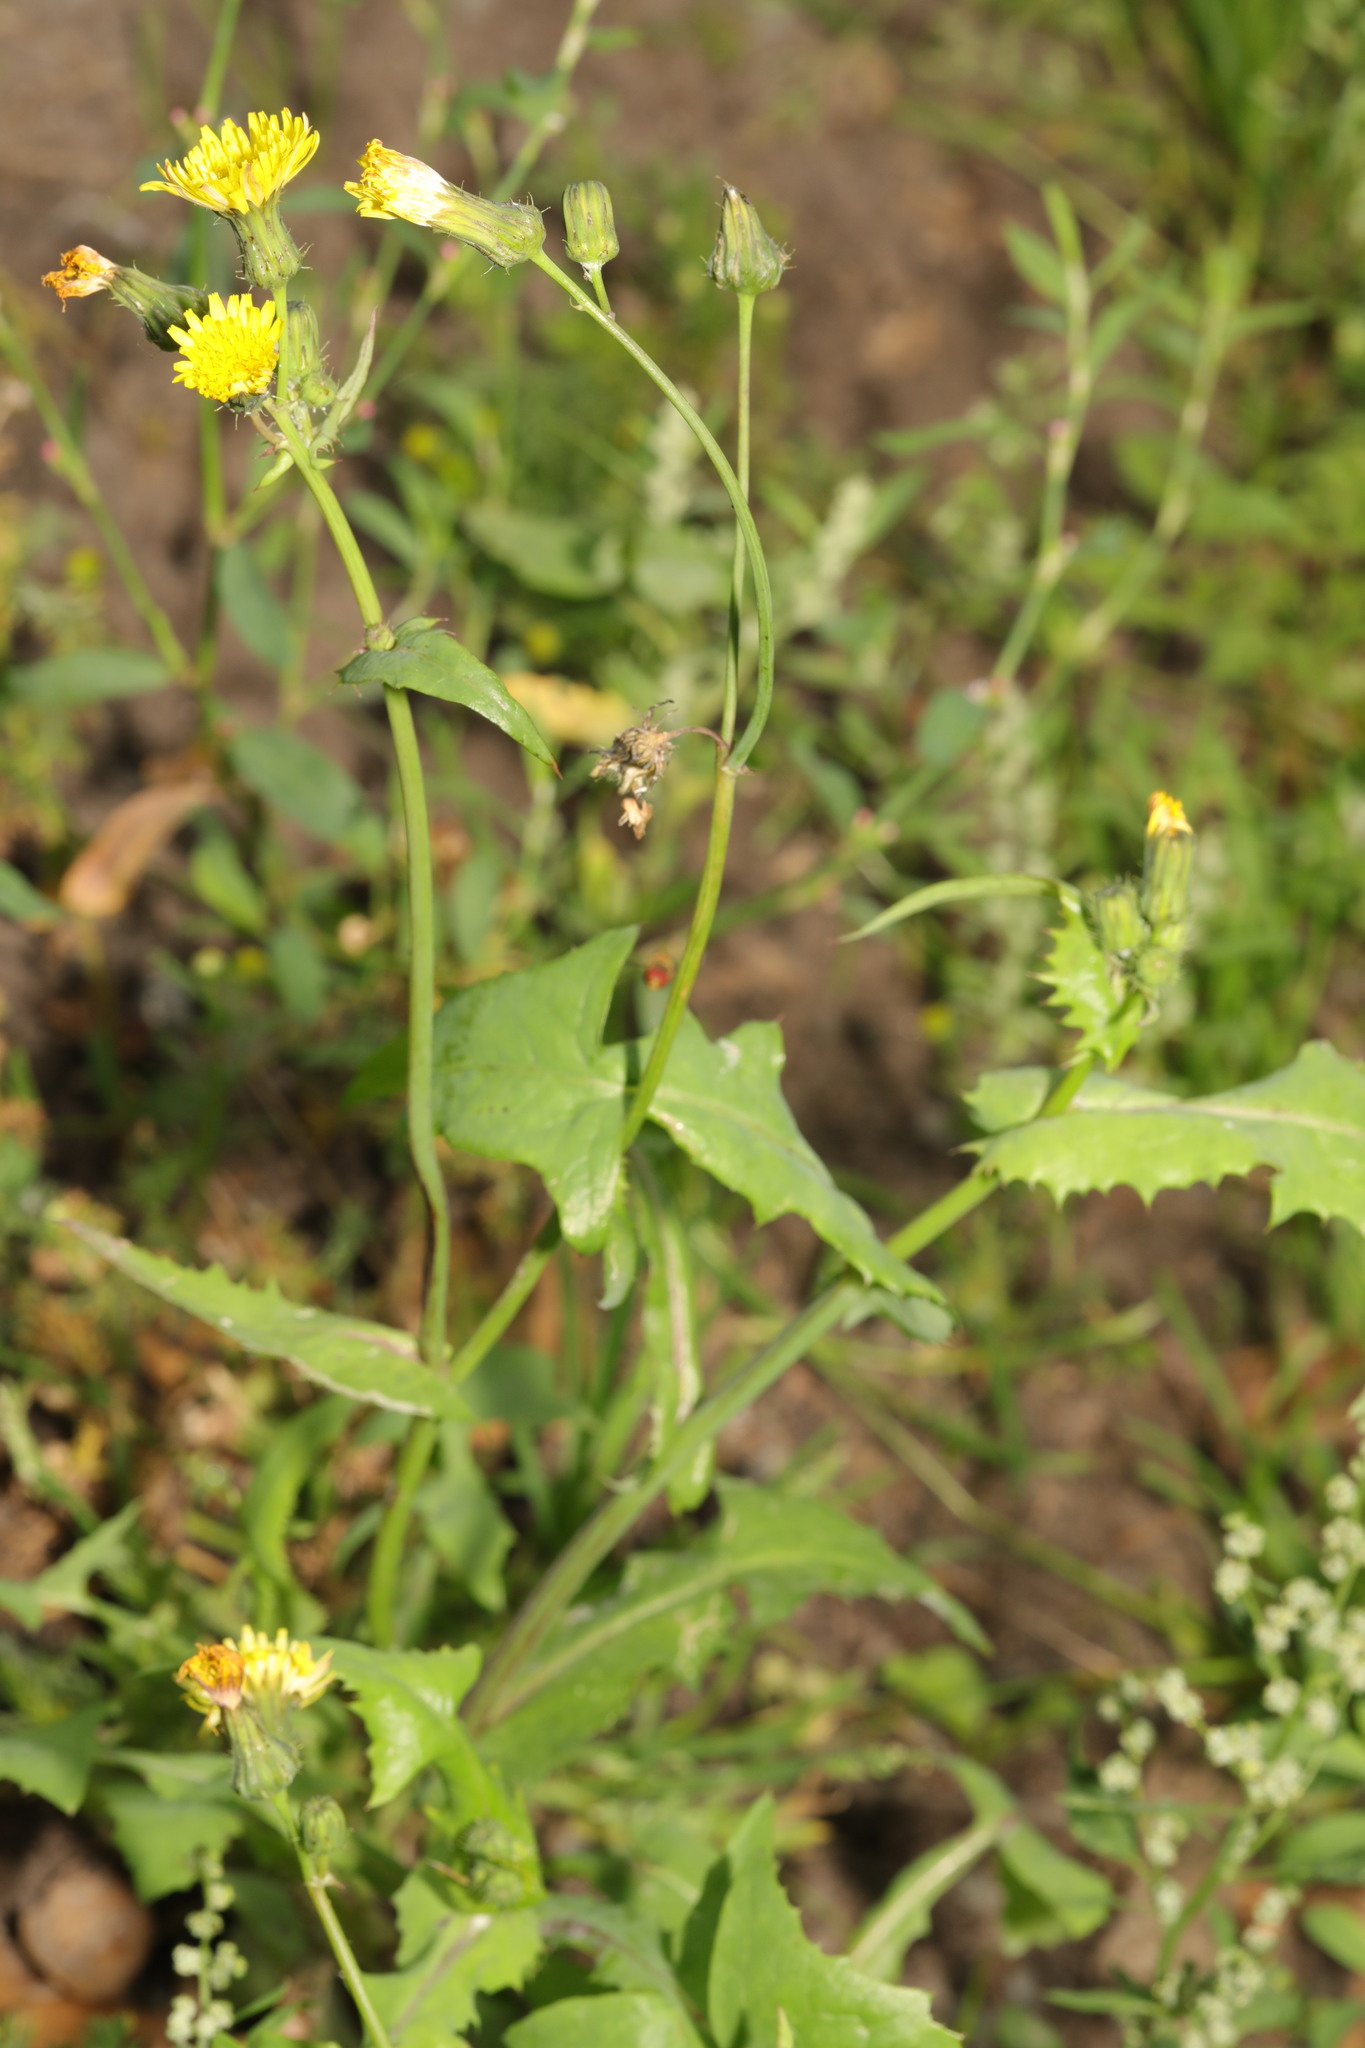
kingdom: Plantae
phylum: Tracheophyta
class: Magnoliopsida
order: Asterales
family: Asteraceae
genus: Sonchus
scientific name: Sonchus oleraceus
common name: Common sowthistle
